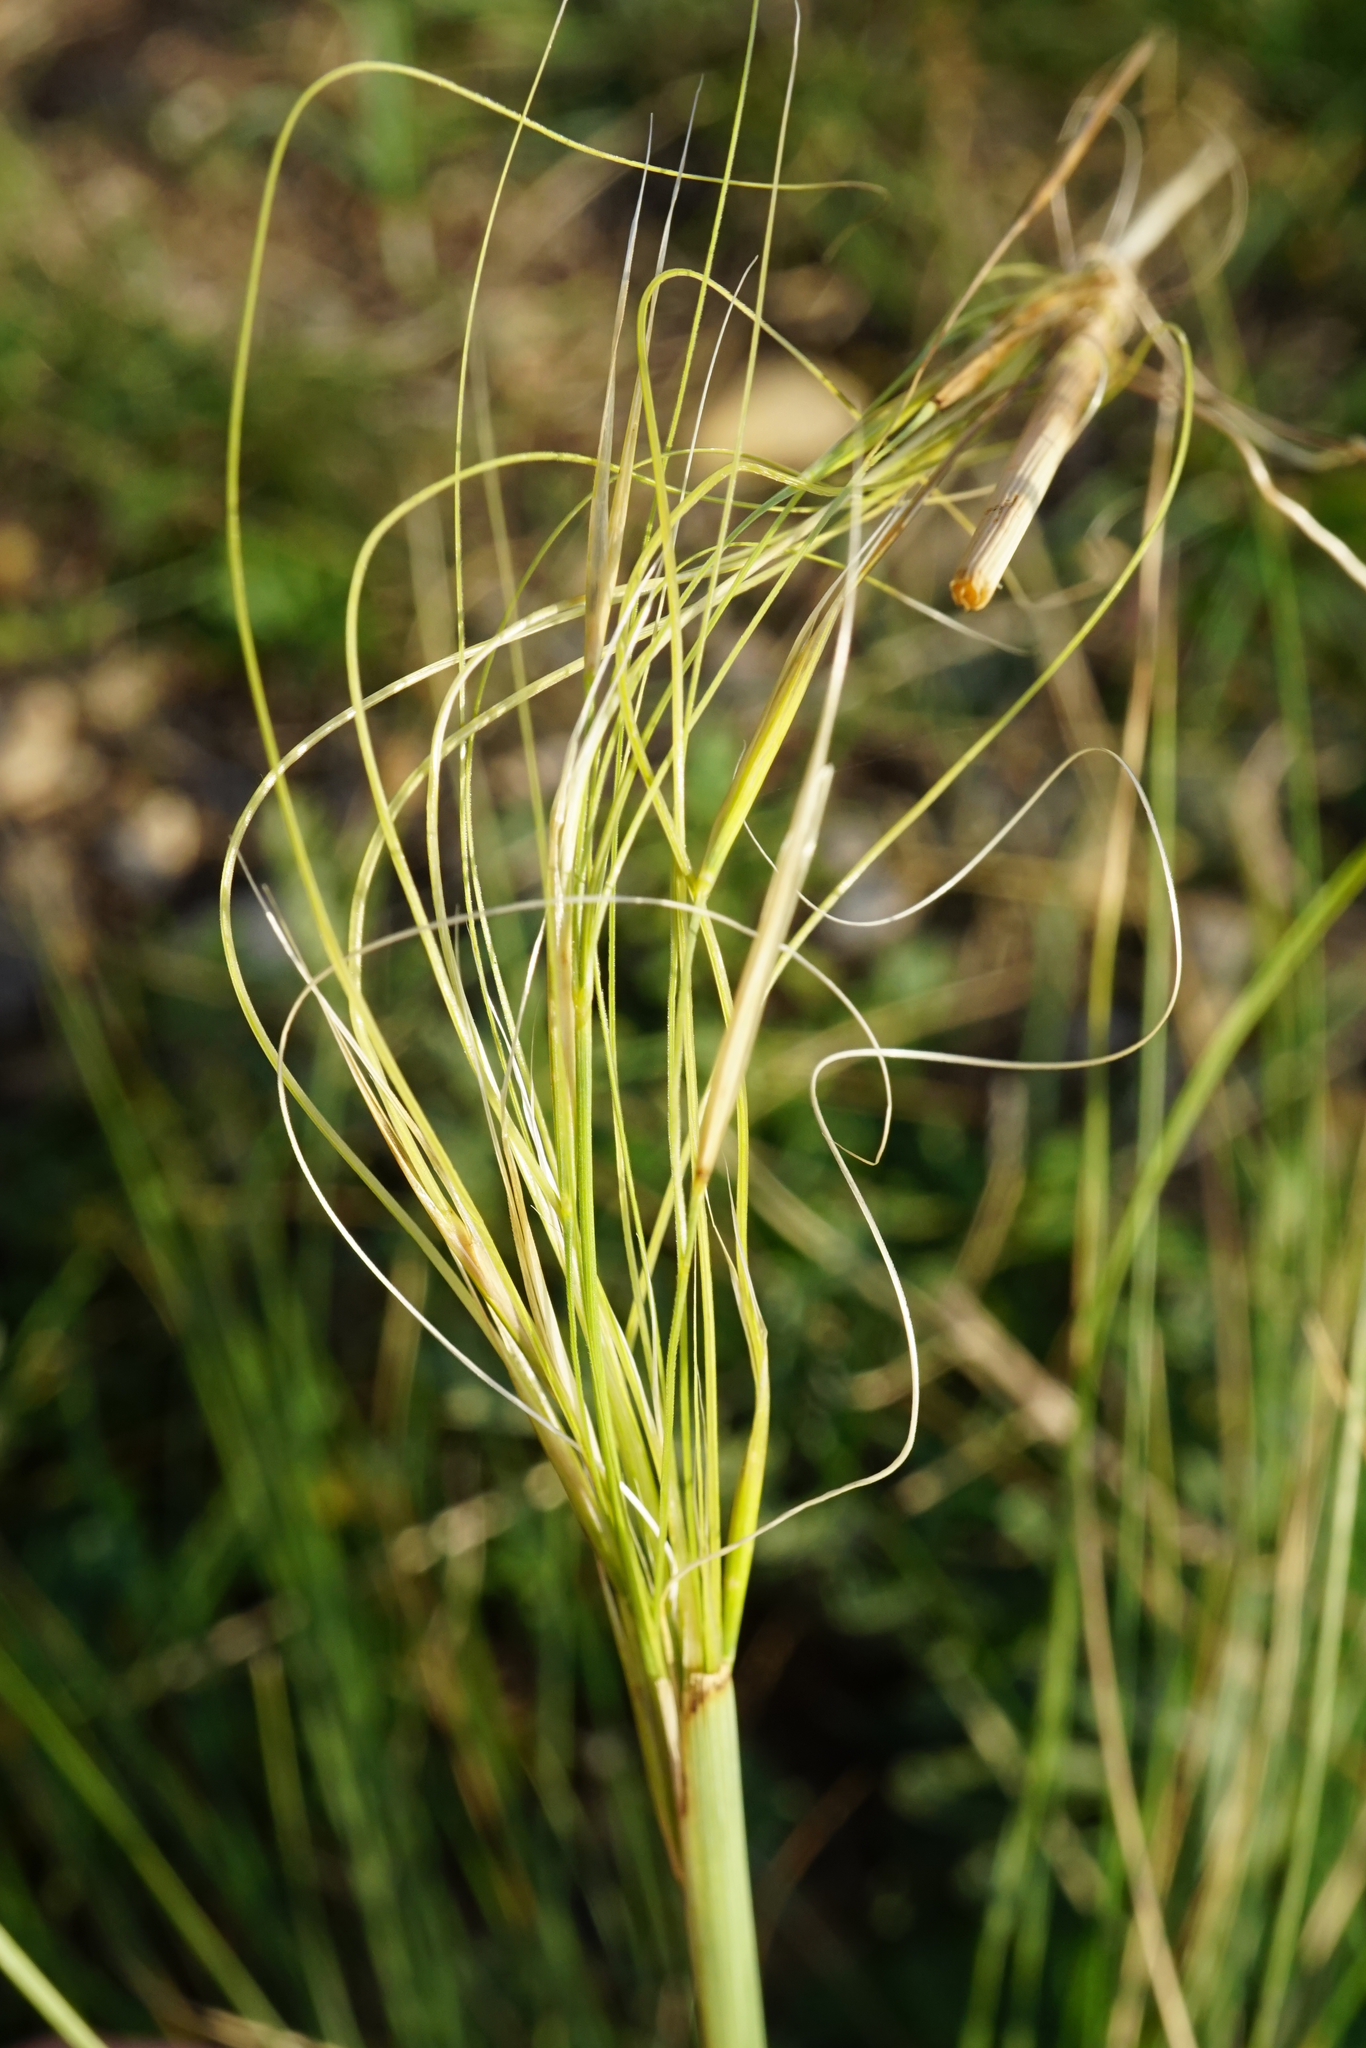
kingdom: Plantae
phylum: Tracheophyta
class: Liliopsida
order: Poales
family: Poaceae
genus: Stipa
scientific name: Stipa capillata
